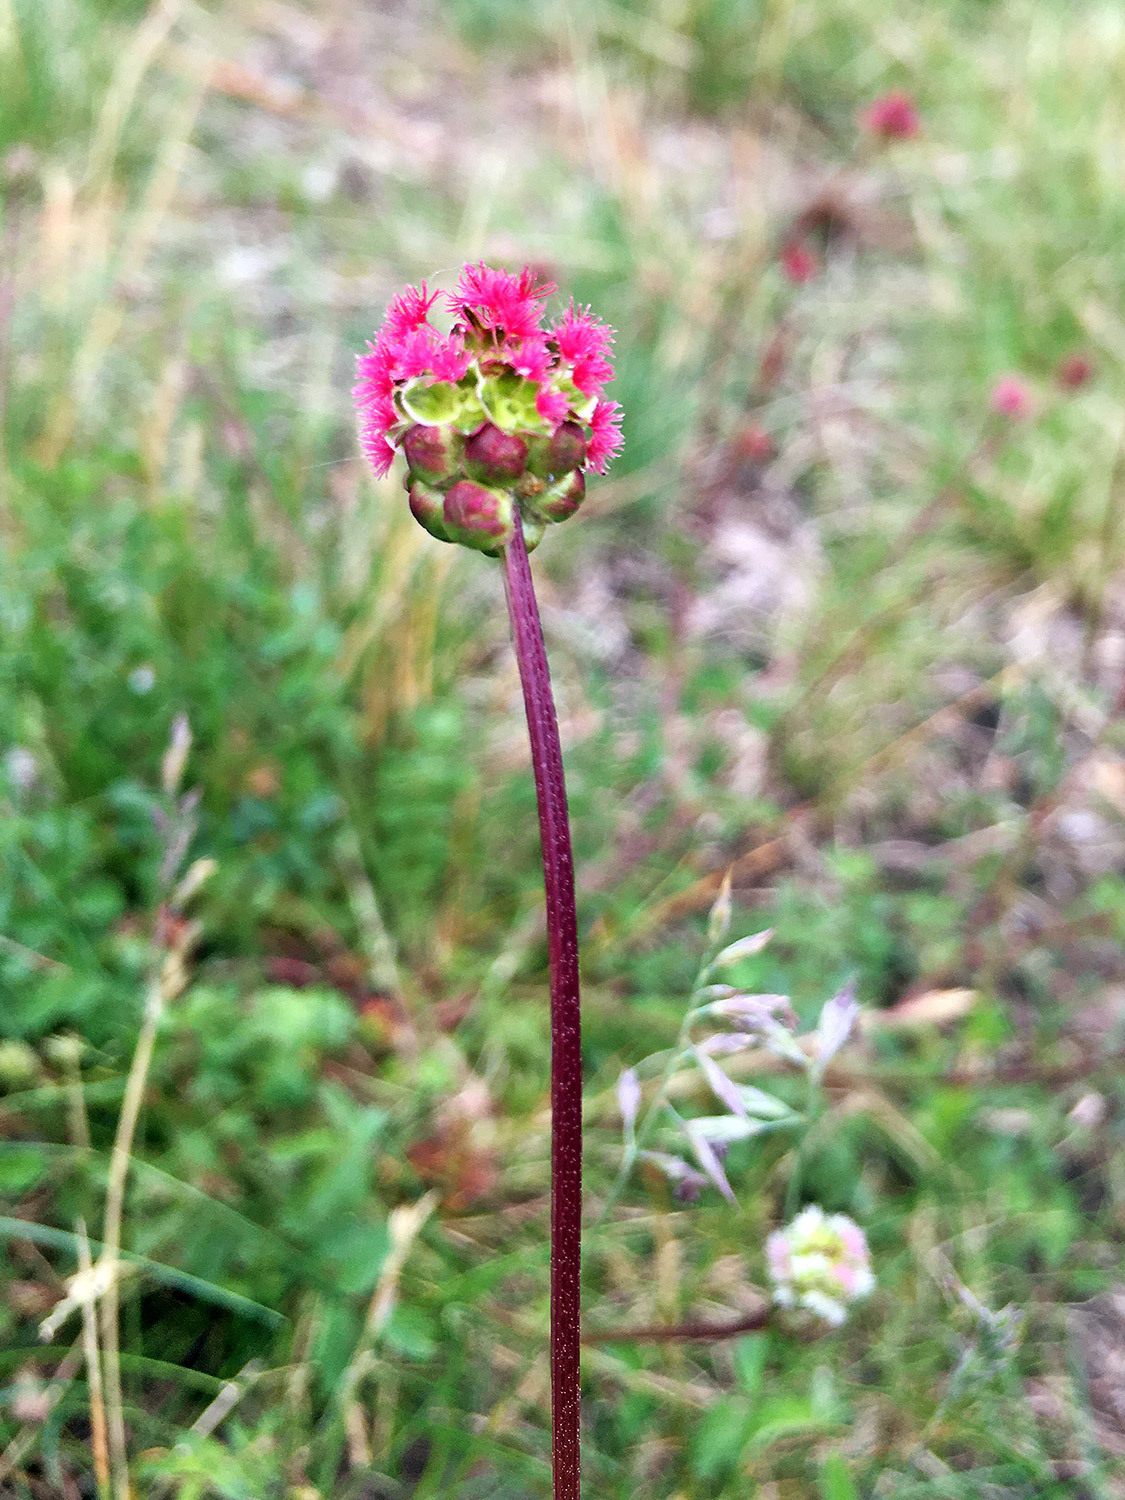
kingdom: Plantae
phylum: Tracheophyta
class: Magnoliopsida
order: Rosales
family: Rosaceae
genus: Poterium
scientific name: Poterium sanguisorba
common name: Salad burnet
